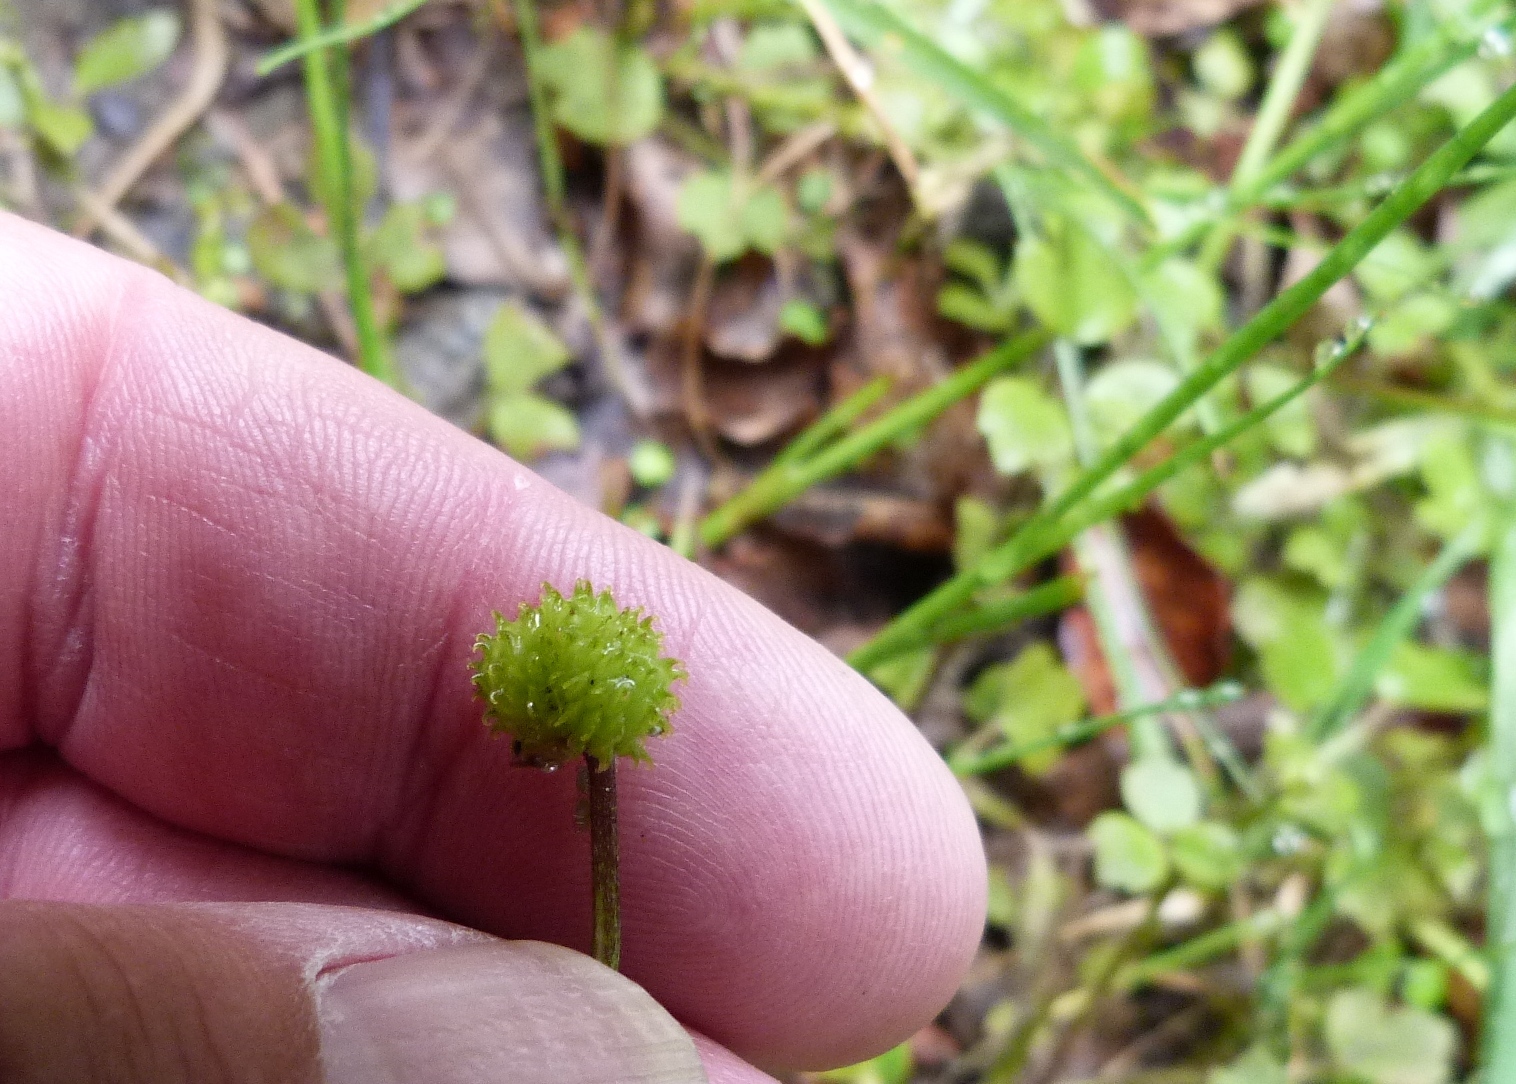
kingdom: Plantae
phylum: Tracheophyta
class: Magnoliopsida
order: Ranunculales
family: Ranunculaceae
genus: Ranunculus
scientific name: Ranunculus reflexus
